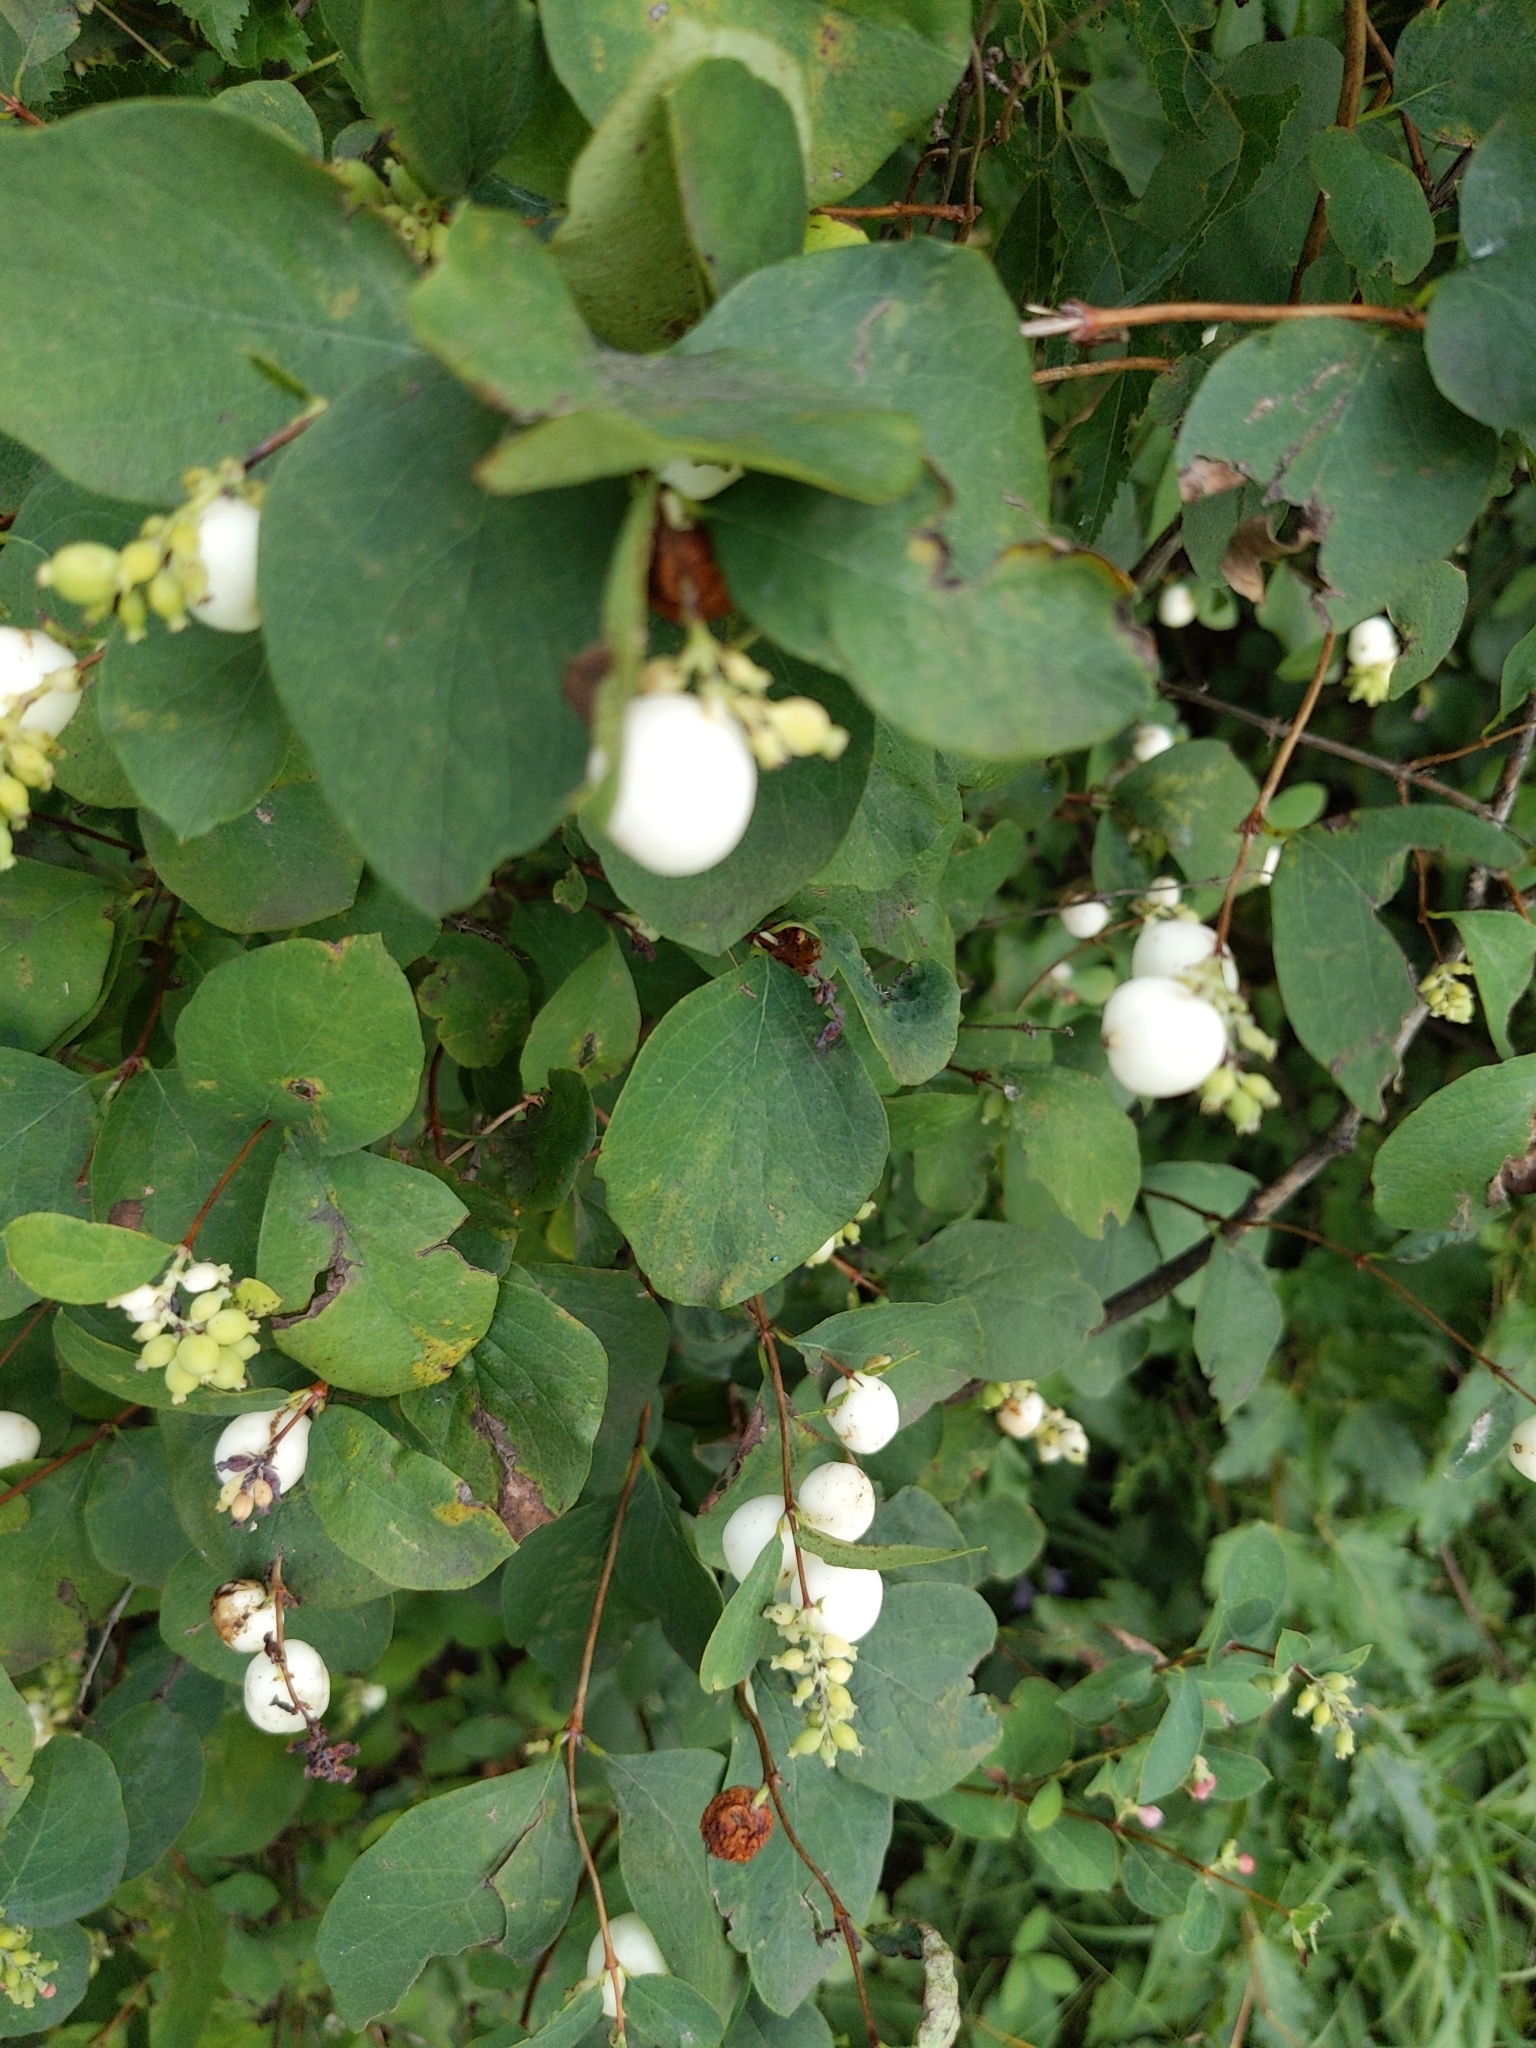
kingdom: Plantae
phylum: Tracheophyta
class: Magnoliopsida
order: Dipsacales
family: Caprifoliaceae
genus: Symphoricarpos
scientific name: Symphoricarpos albus
